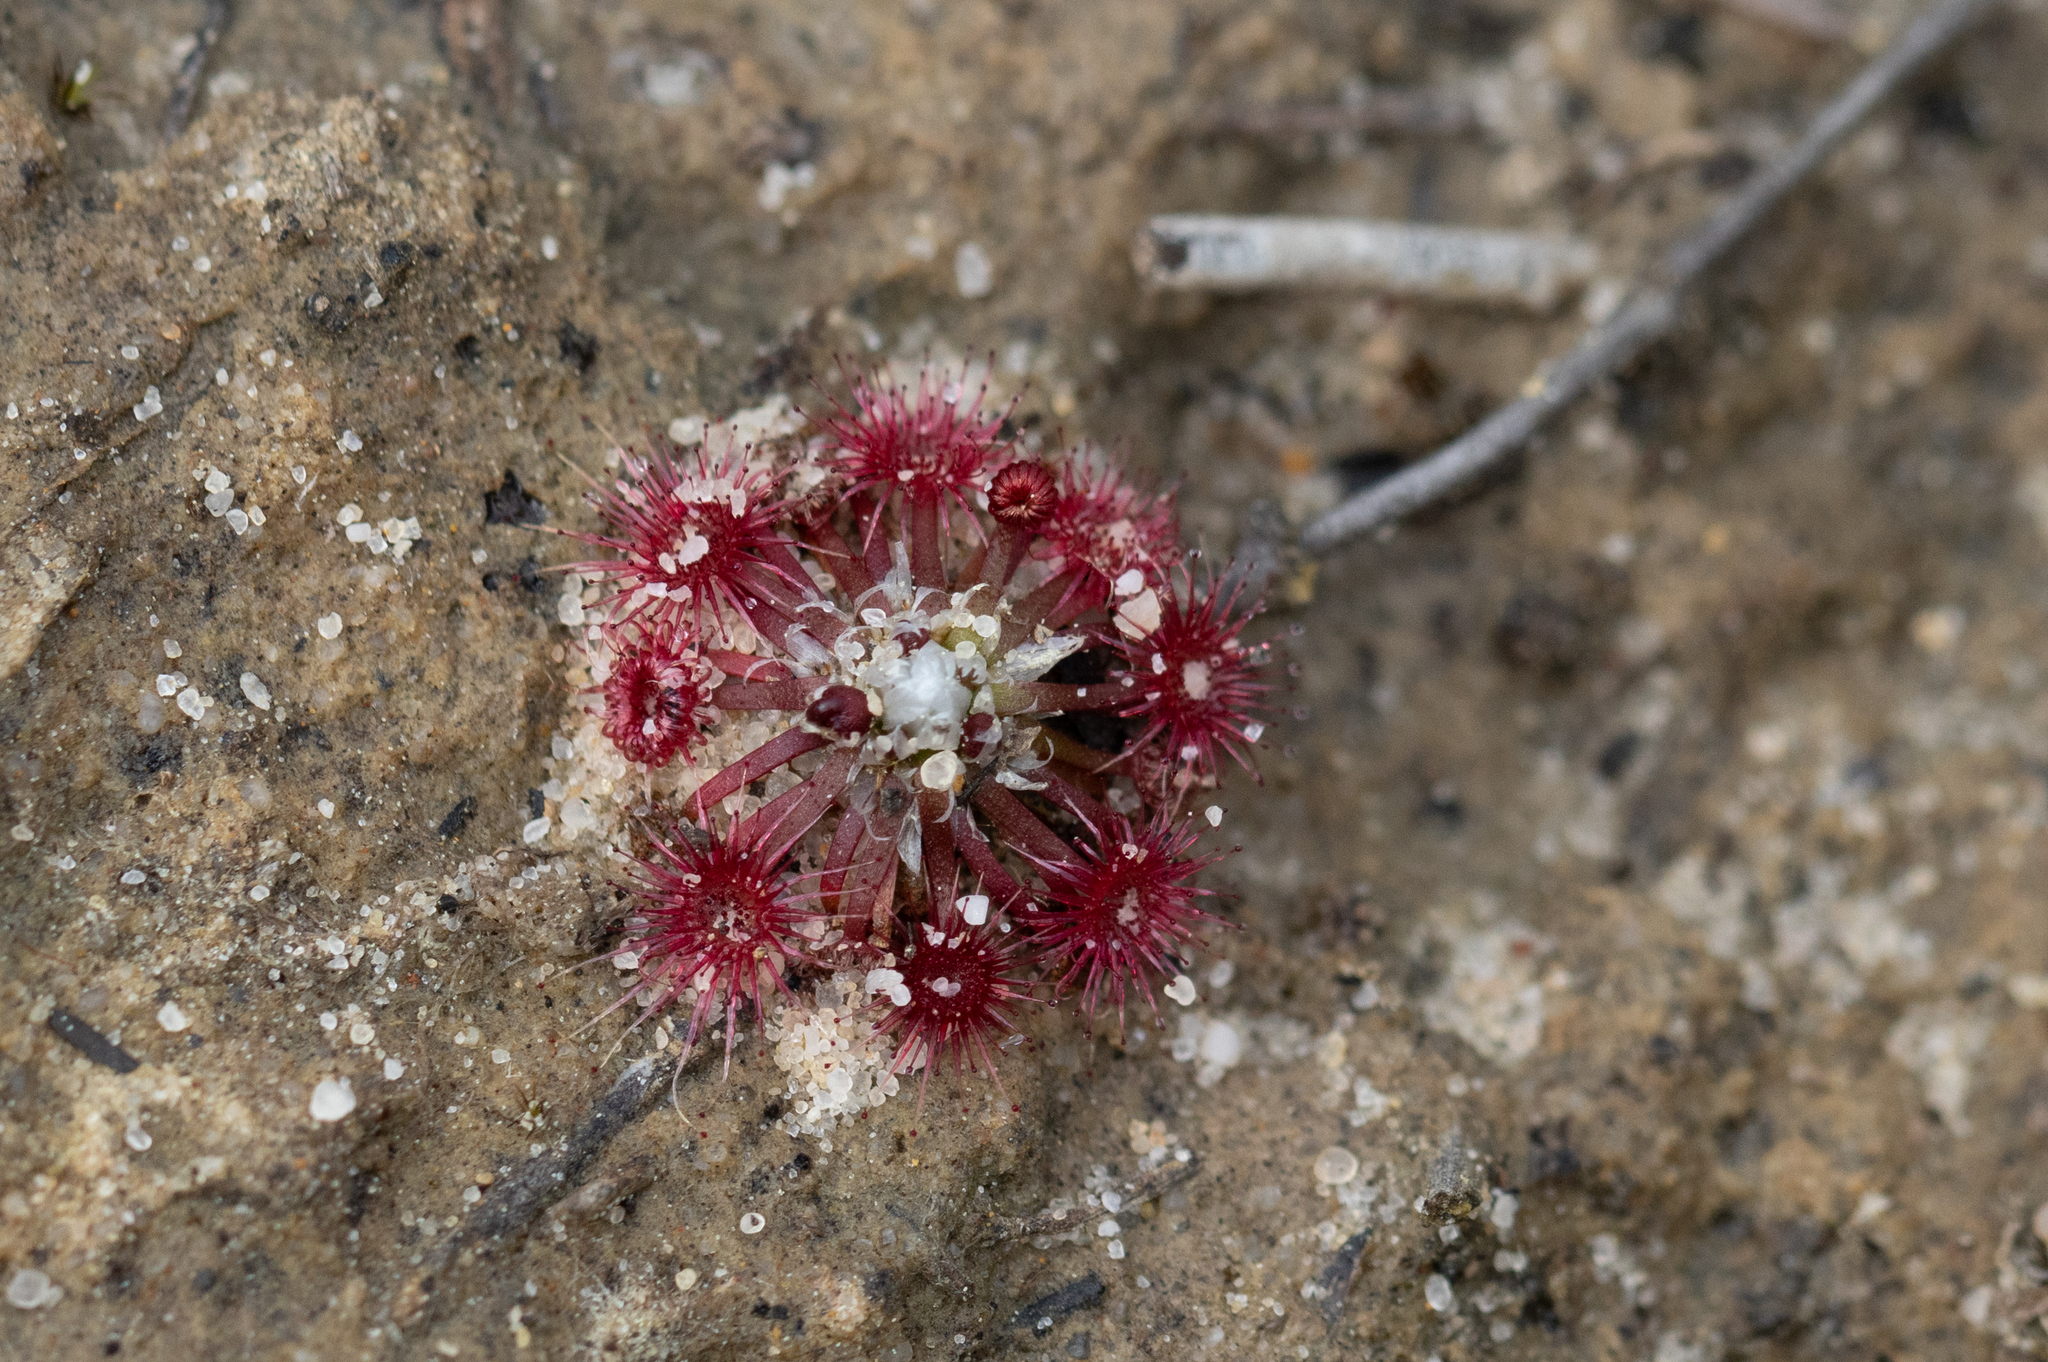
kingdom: Plantae
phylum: Tracheophyta
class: Magnoliopsida
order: Caryophyllales
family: Droseraceae
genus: Drosera
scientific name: Drosera pygmaea
